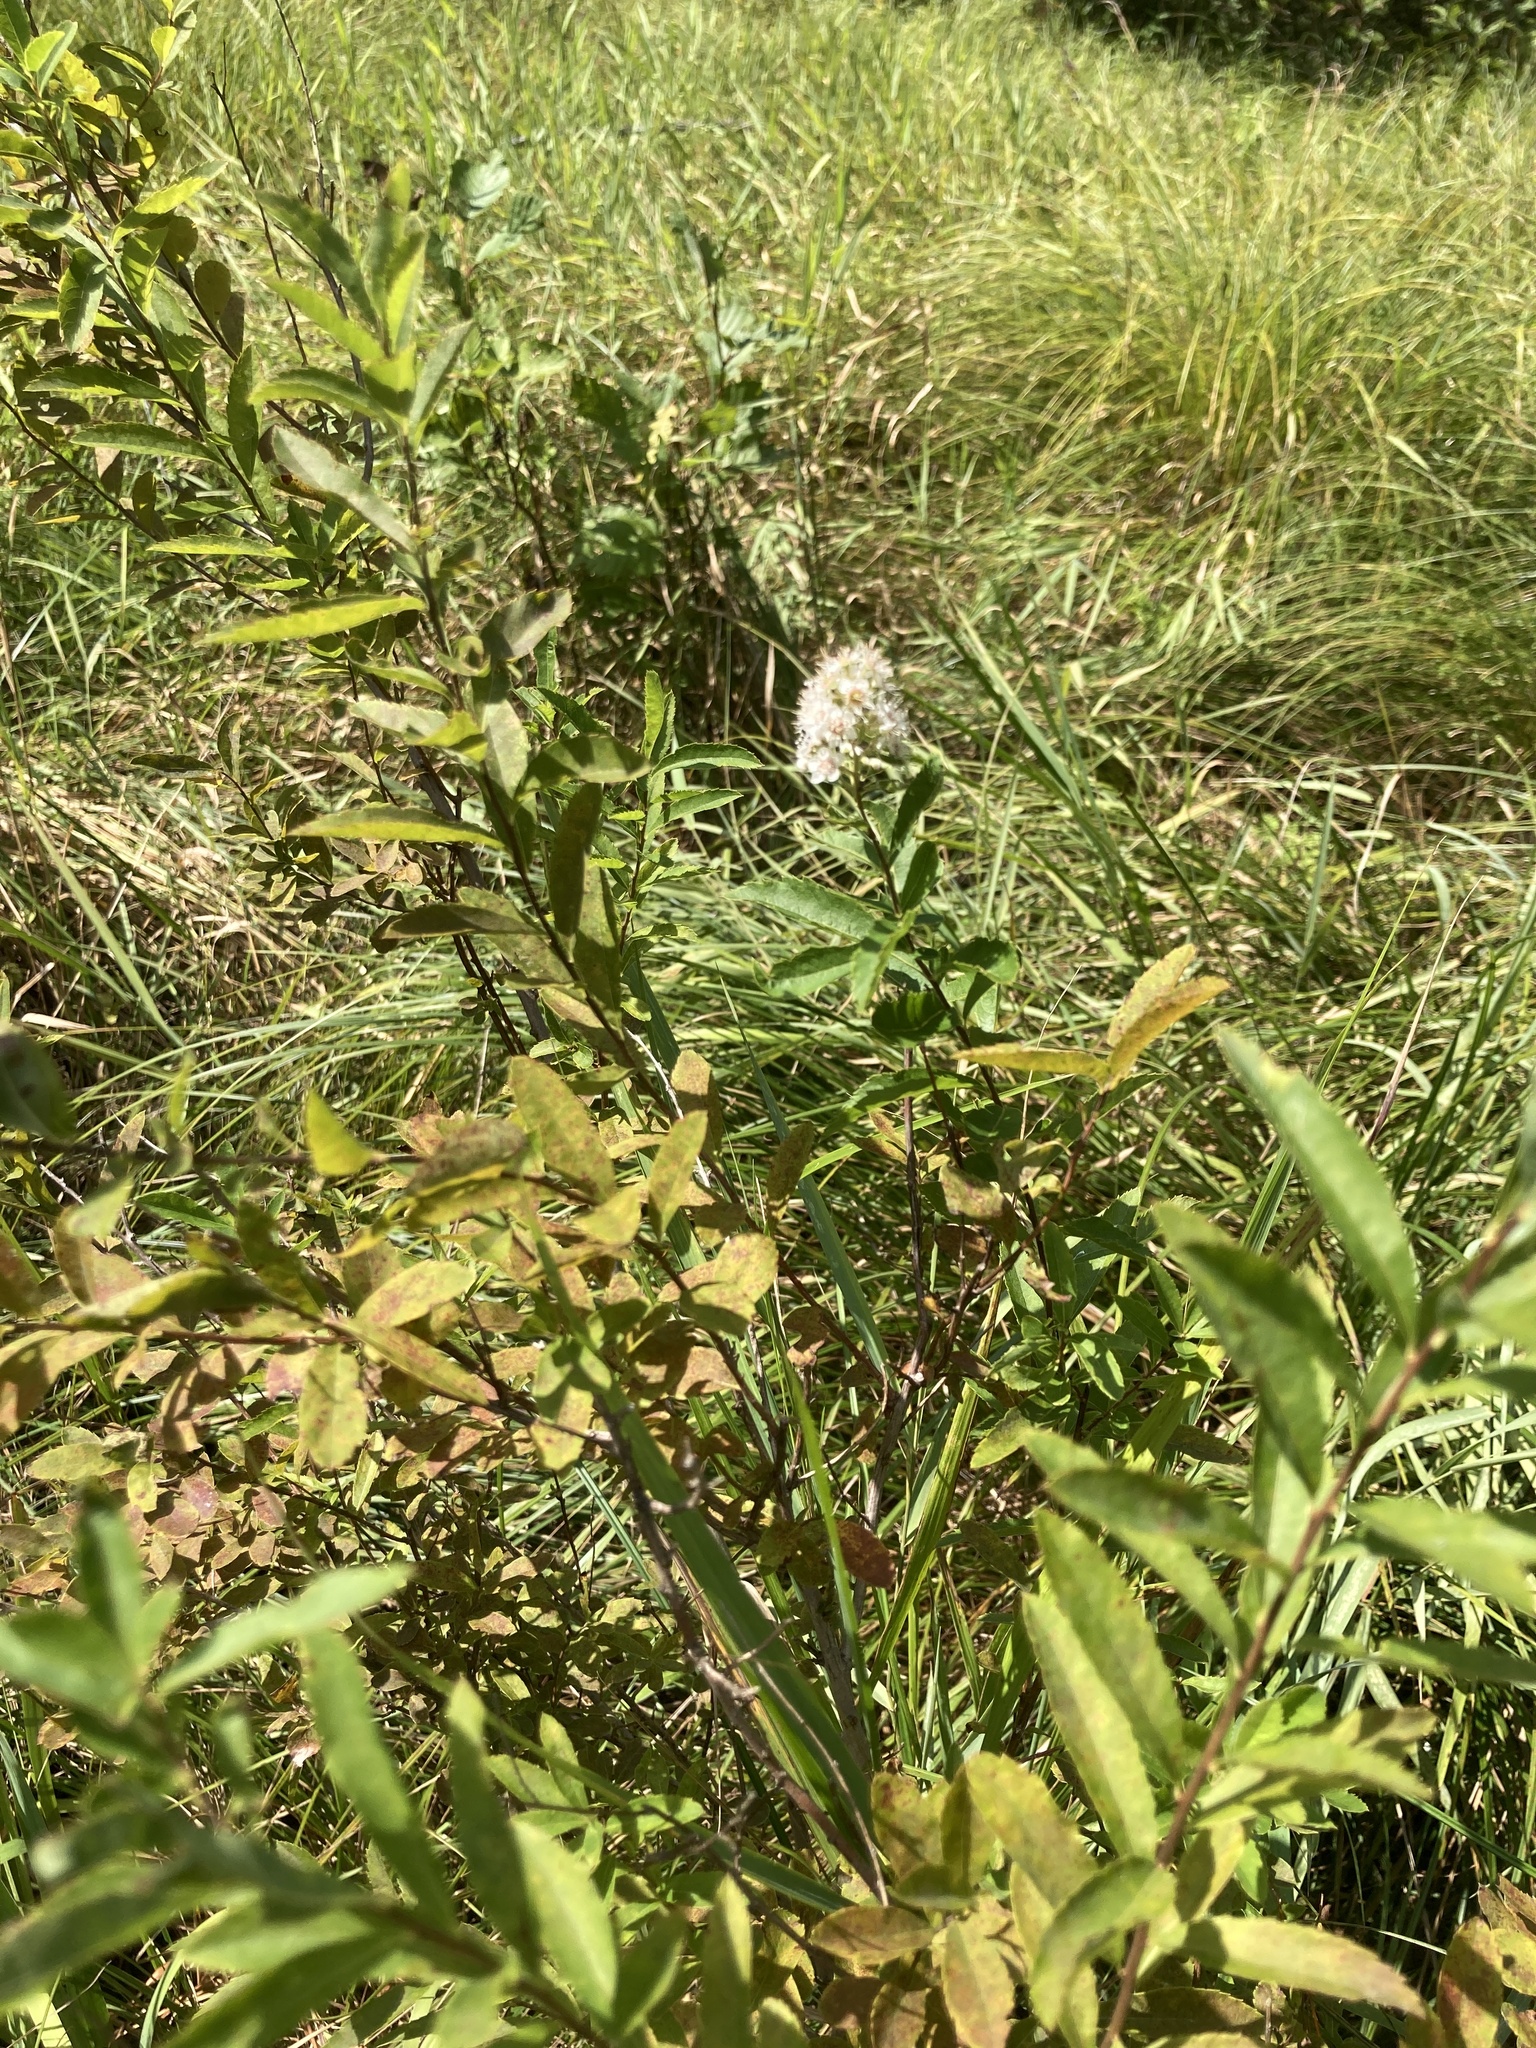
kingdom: Plantae
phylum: Tracheophyta
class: Magnoliopsida
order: Rosales
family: Rosaceae
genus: Spiraea
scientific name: Spiraea alba
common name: Pale bridewort
